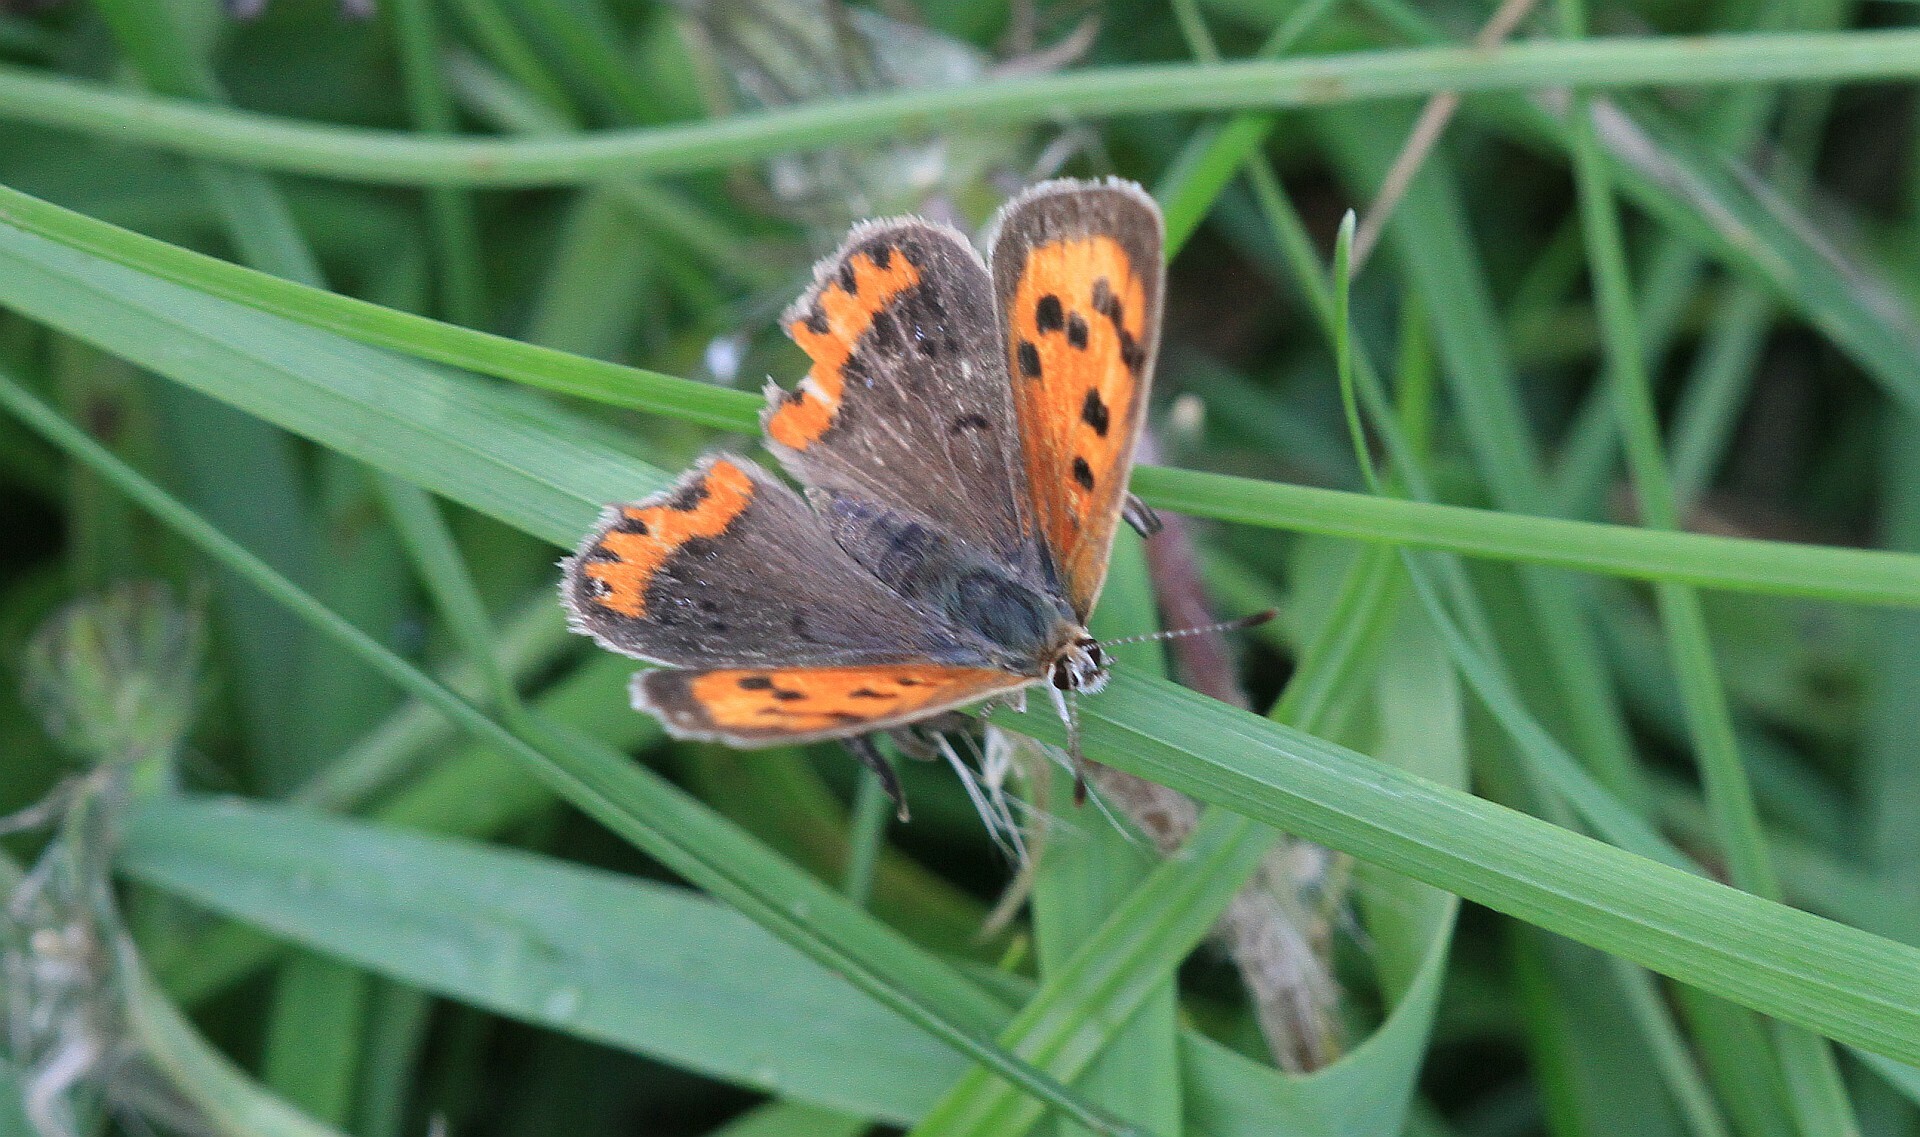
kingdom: Animalia
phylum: Arthropoda
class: Insecta
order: Lepidoptera
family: Lycaenidae
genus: Lycaena
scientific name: Lycaena phlaeas
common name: Small copper
